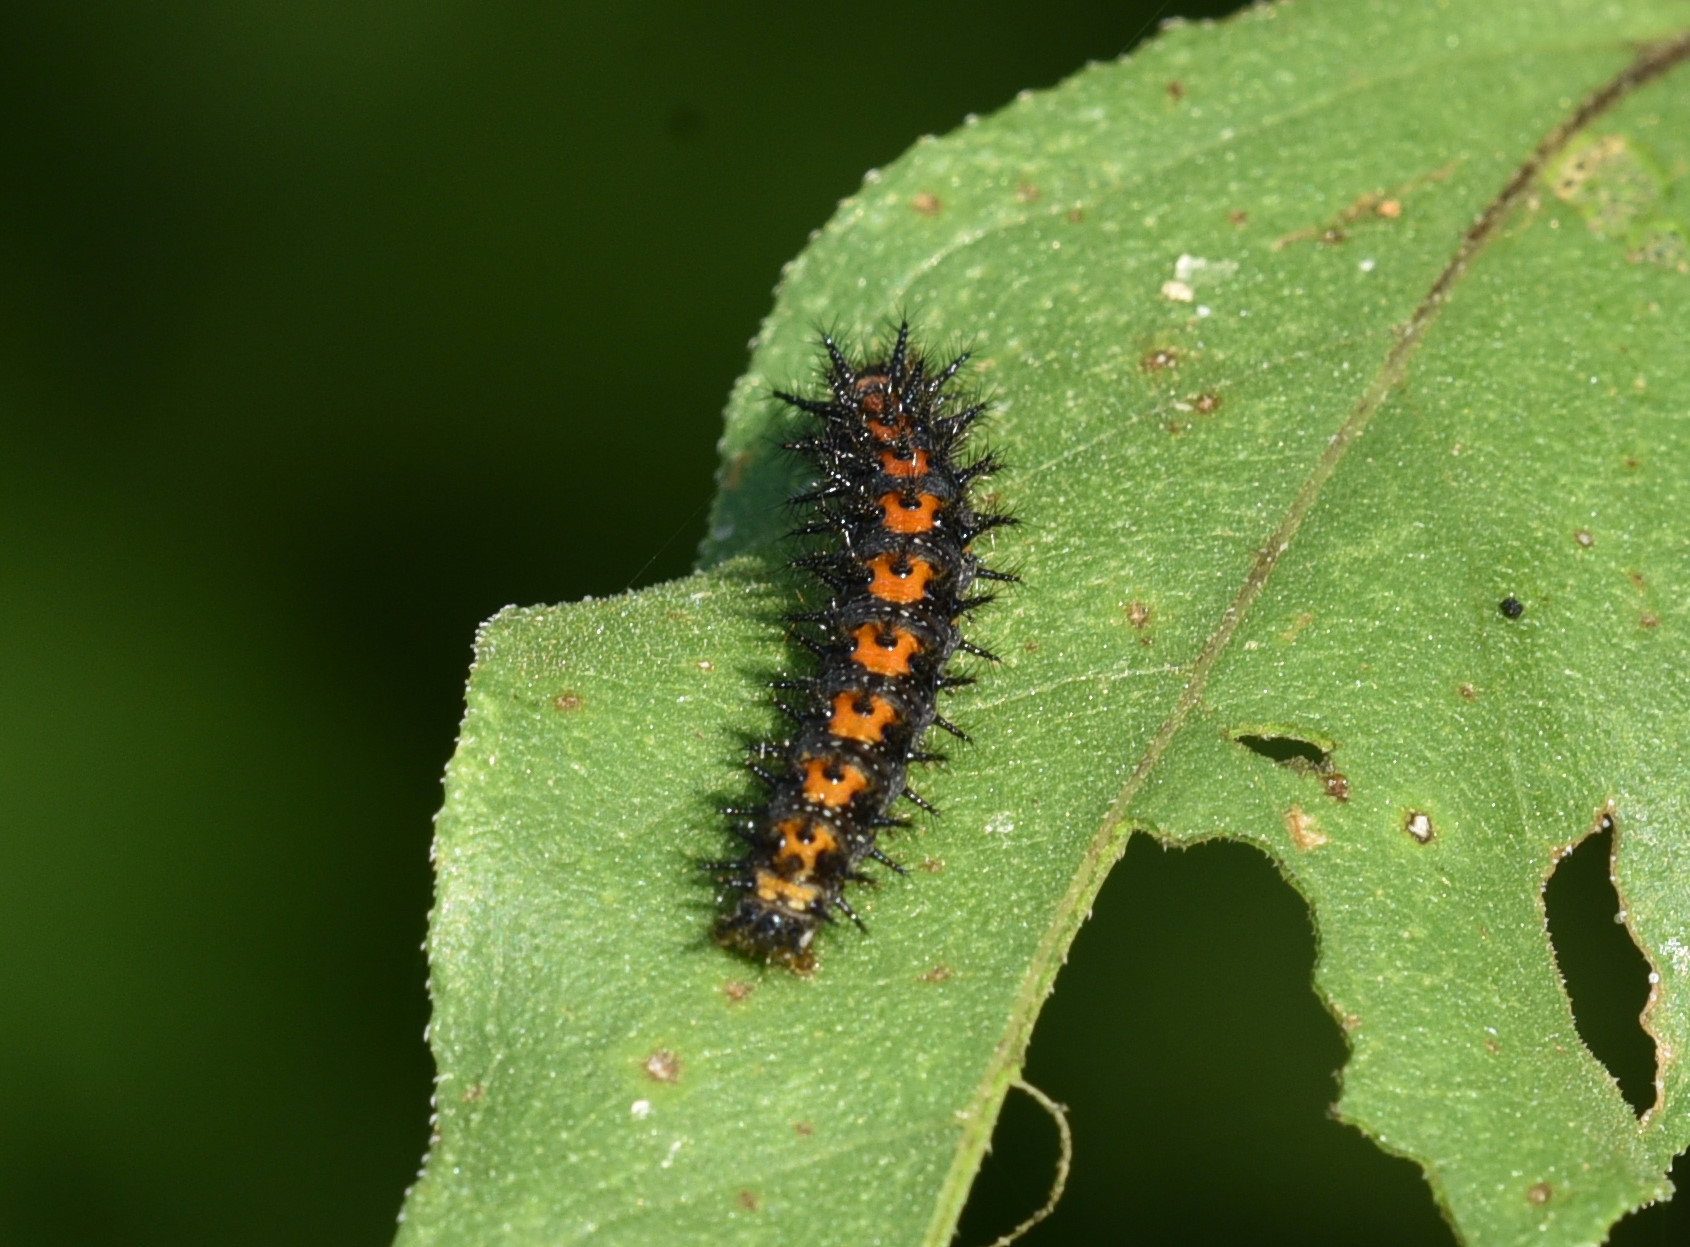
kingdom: Animalia
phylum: Arthropoda
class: Insecta
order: Lepidoptera
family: Nymphalidae
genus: Chlosyne
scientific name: Chlosyne lacinia
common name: Bordered patch
